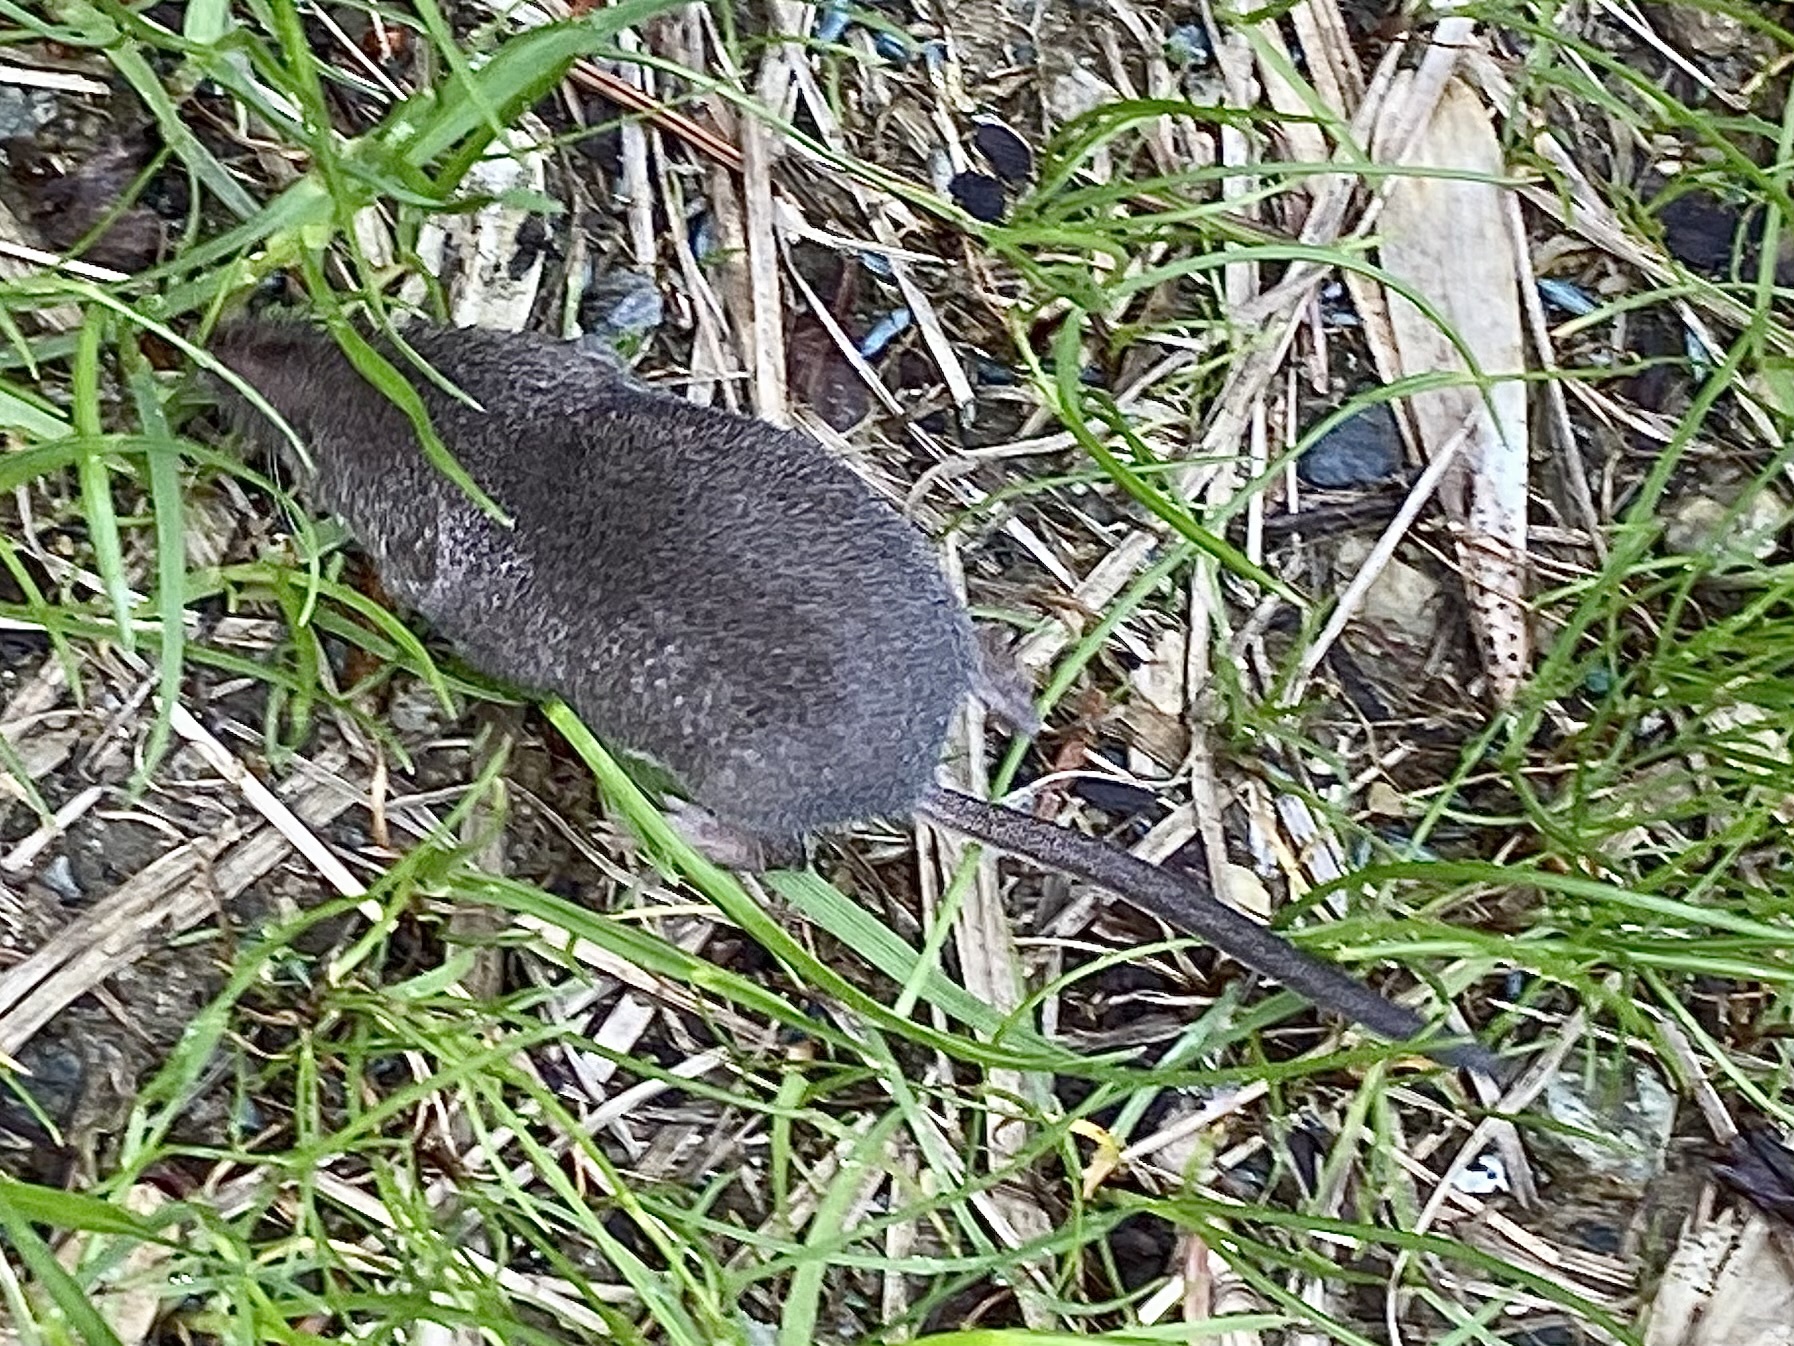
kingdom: Animalia
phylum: Chordata
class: Mammalia
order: Soricomorpha
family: Soricidae
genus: Sorex
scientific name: Sorex fumeus
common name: Smoky shrew
